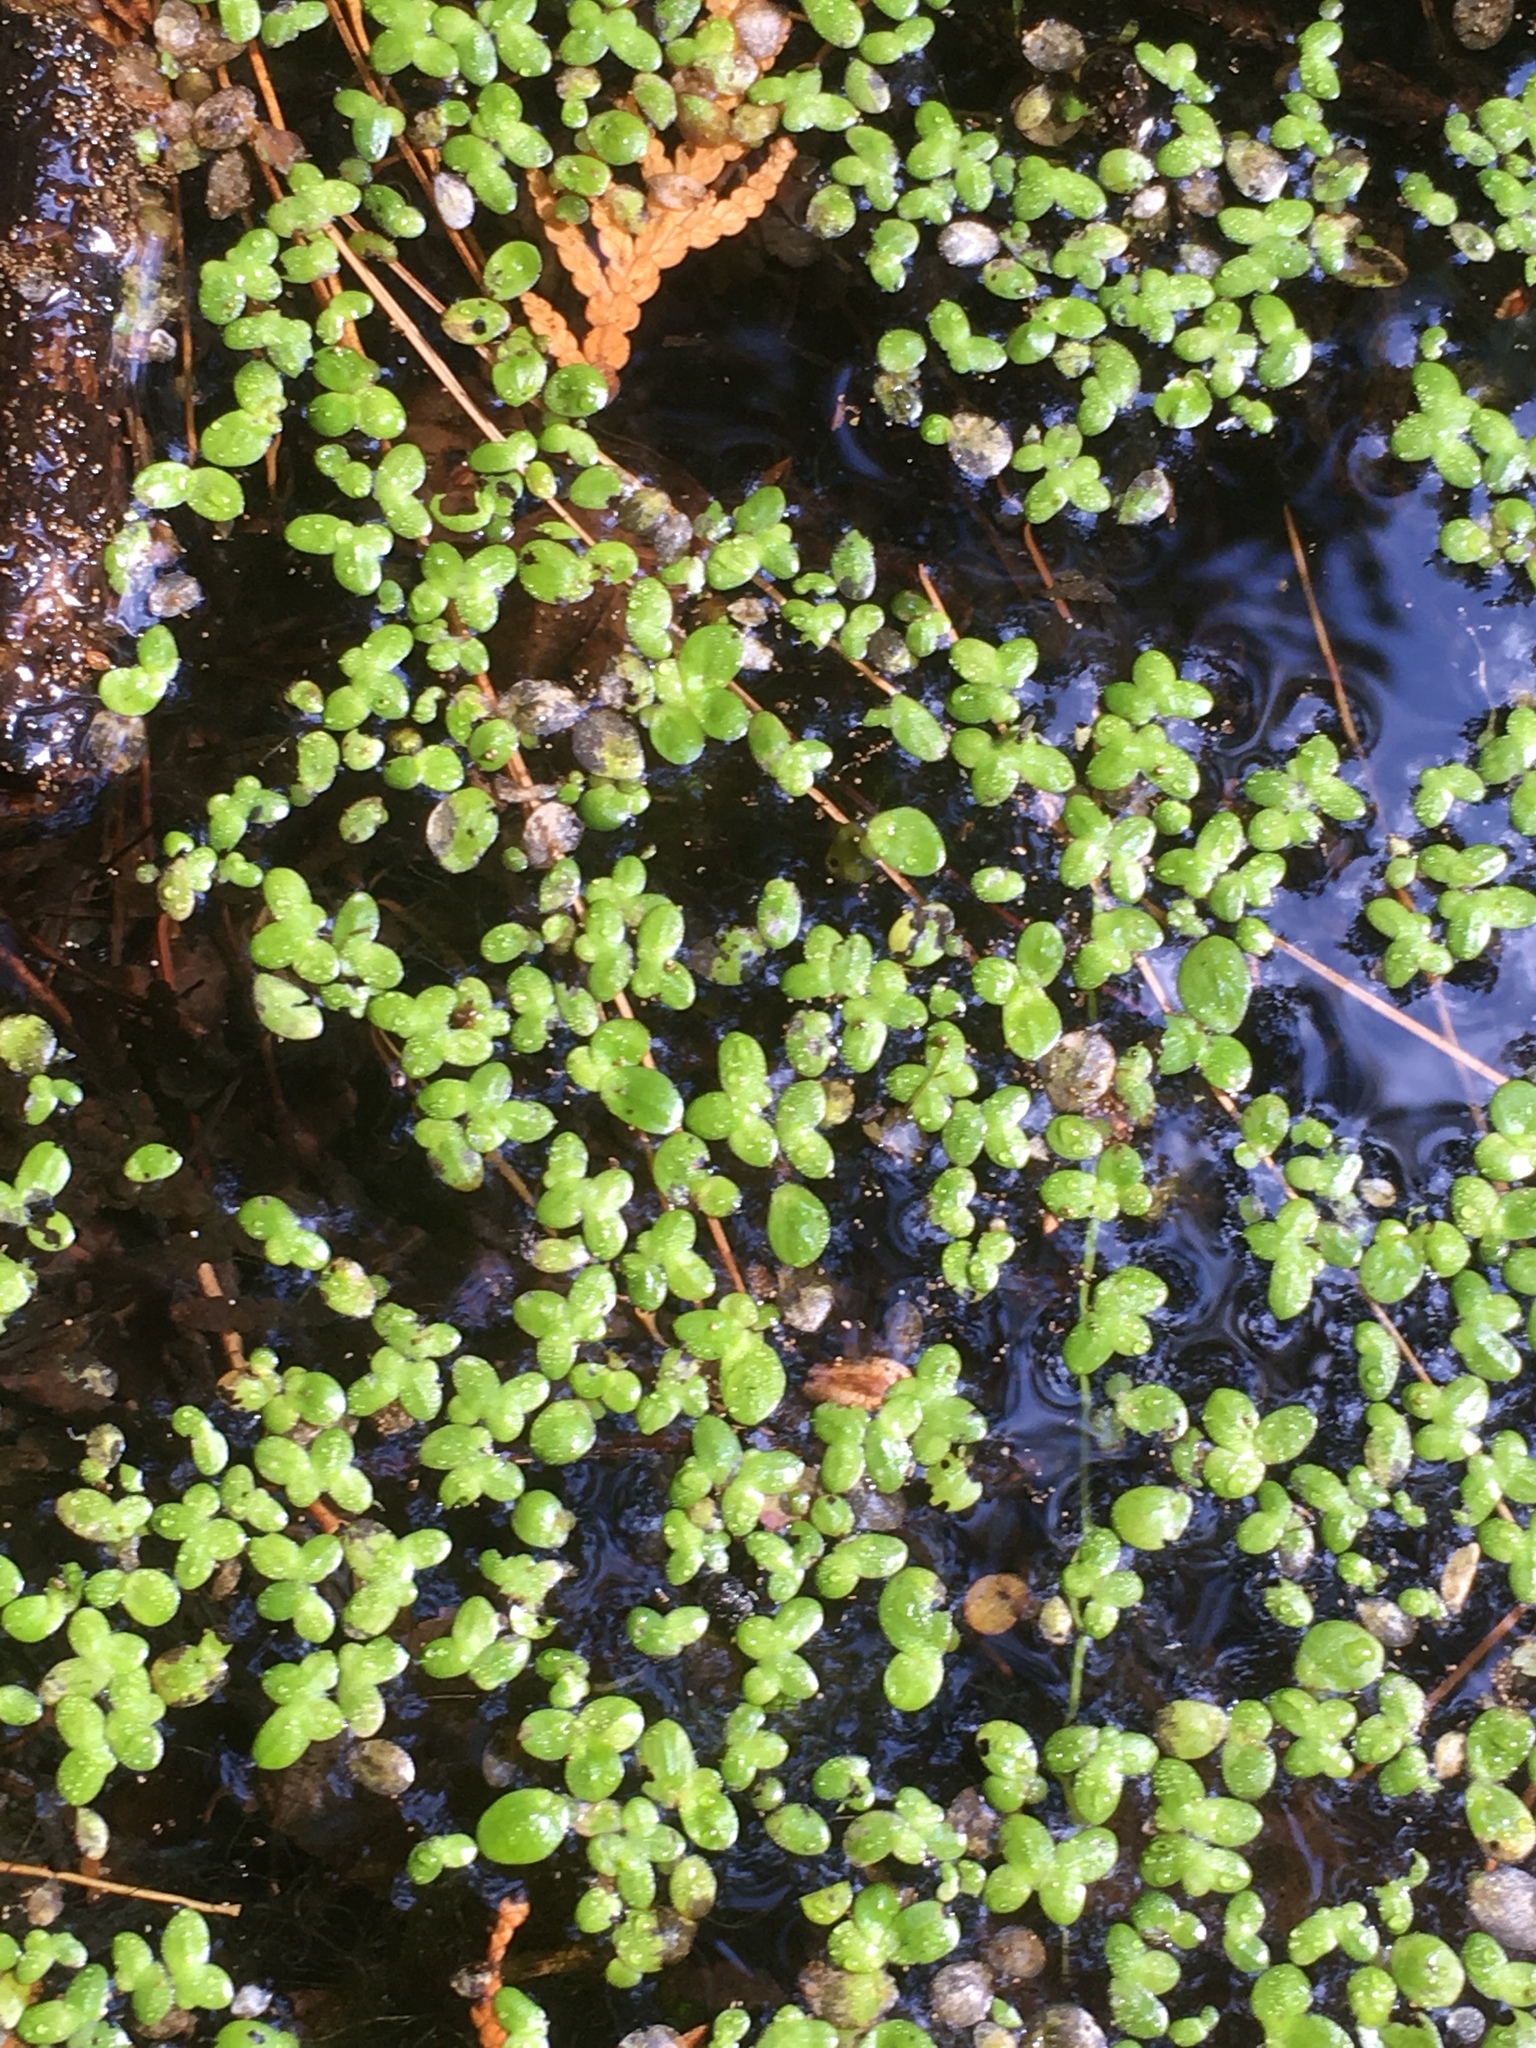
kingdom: Plantae
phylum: Tracheophyta
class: Liliopsida
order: Alismatales
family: Araceae
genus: Lemna
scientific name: Lemna minor
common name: Common duckweed
